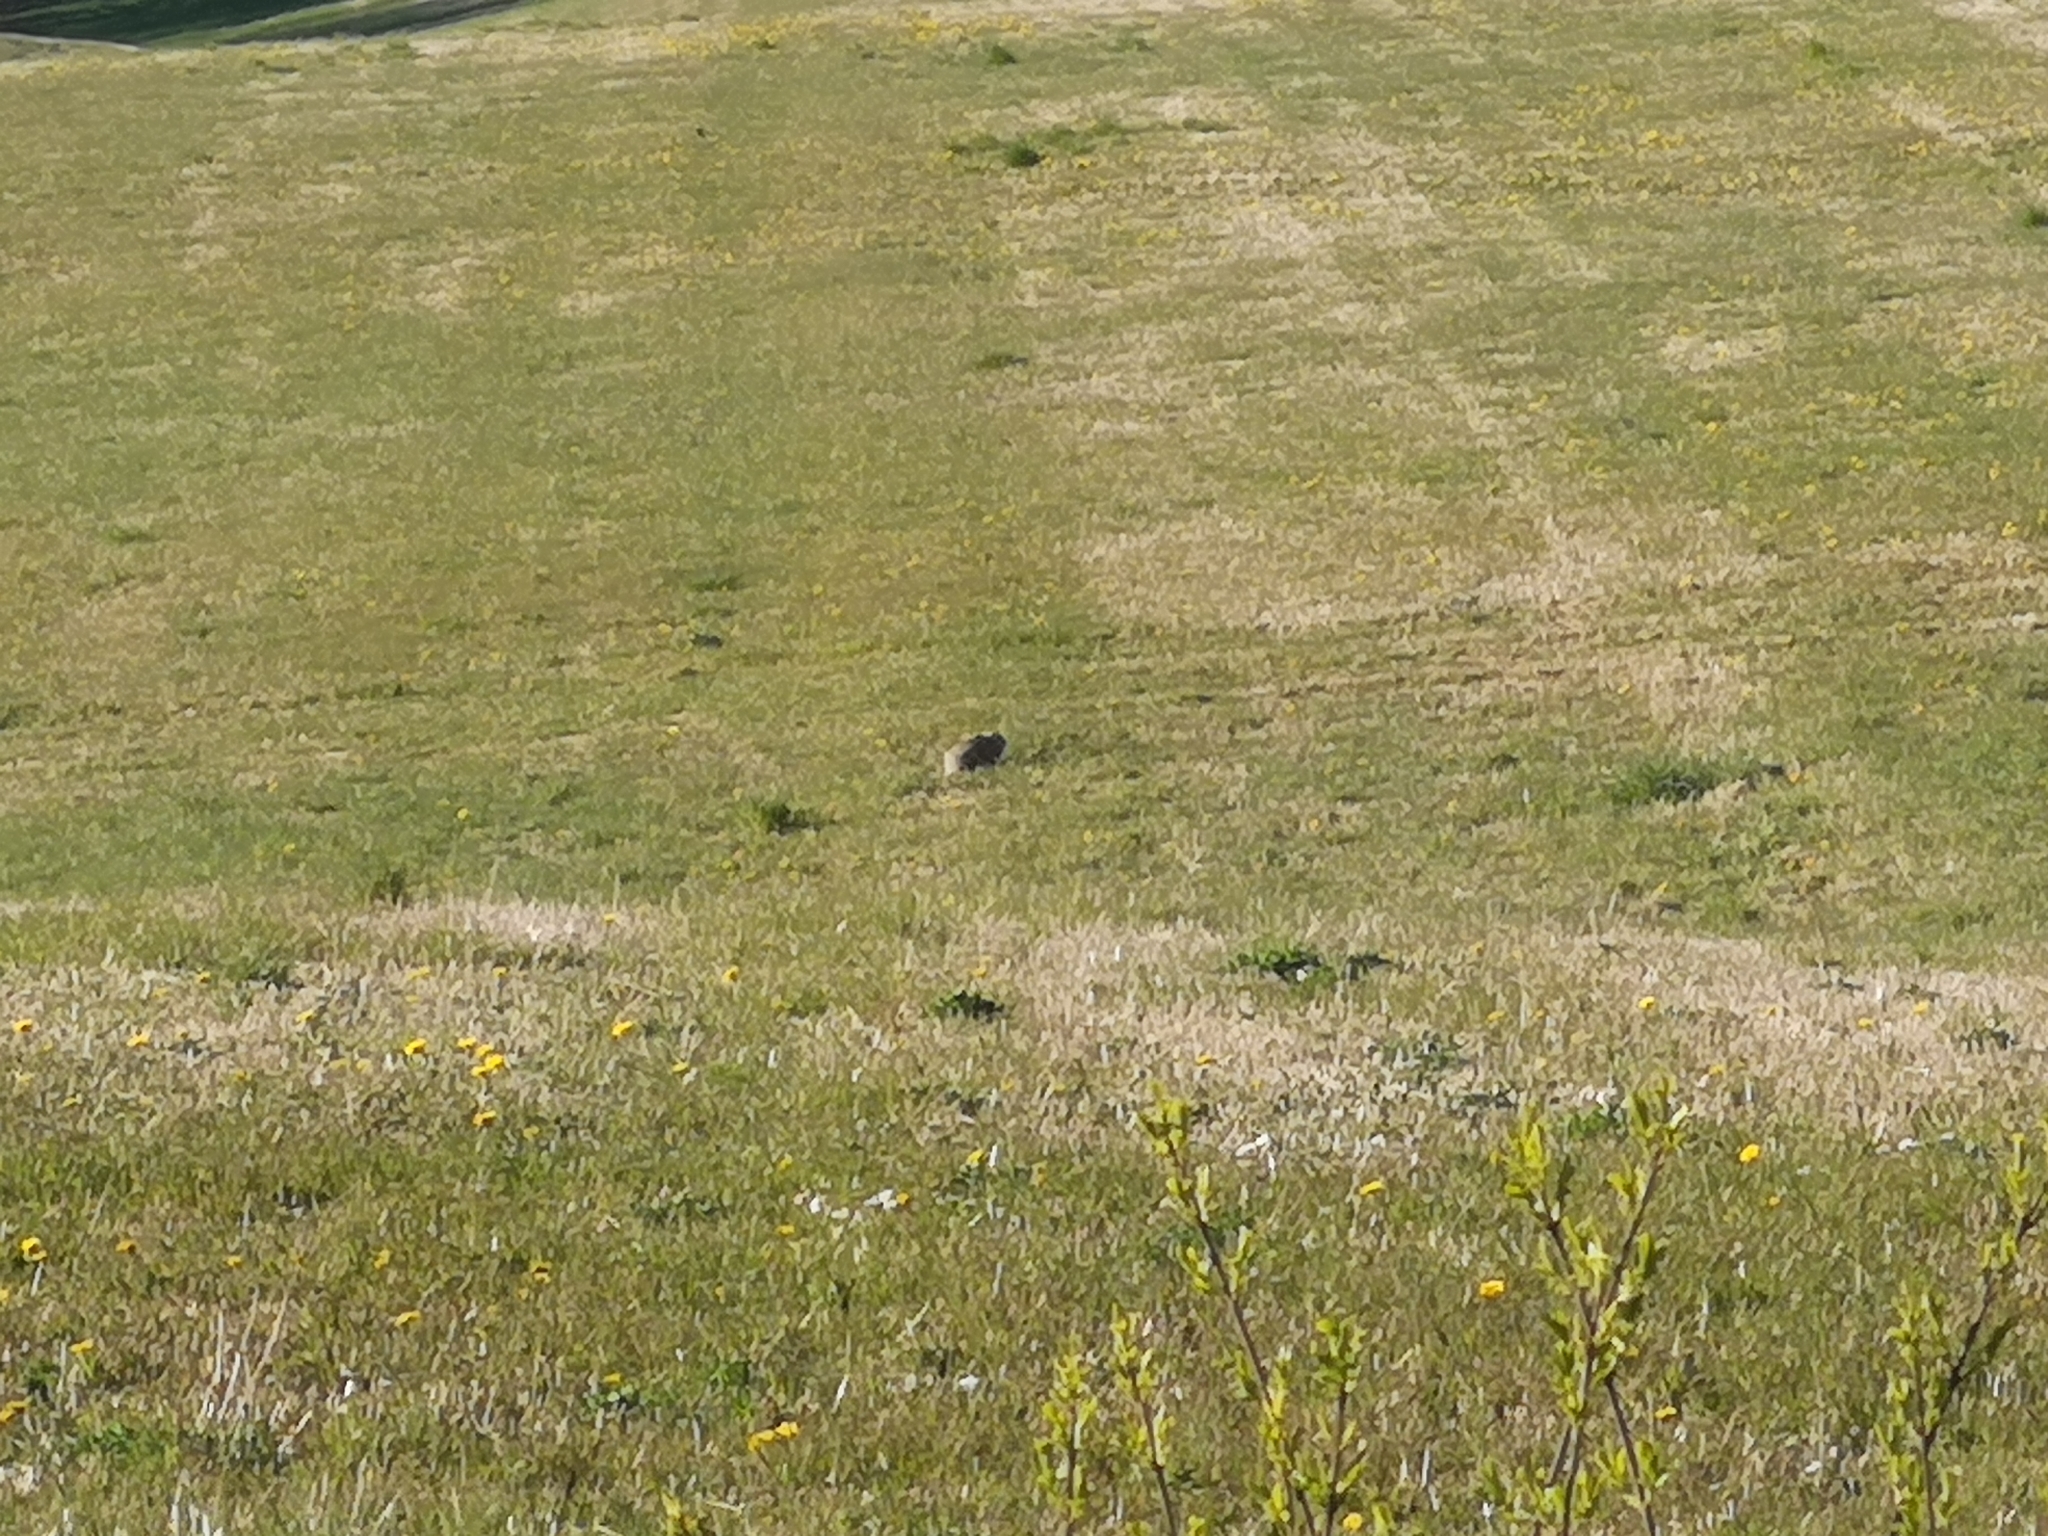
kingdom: Animalia
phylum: Chordata
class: Mammalia
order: Lagomorpha
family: Leporidae
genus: Lepus
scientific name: Lepus europaeus
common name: European hare
